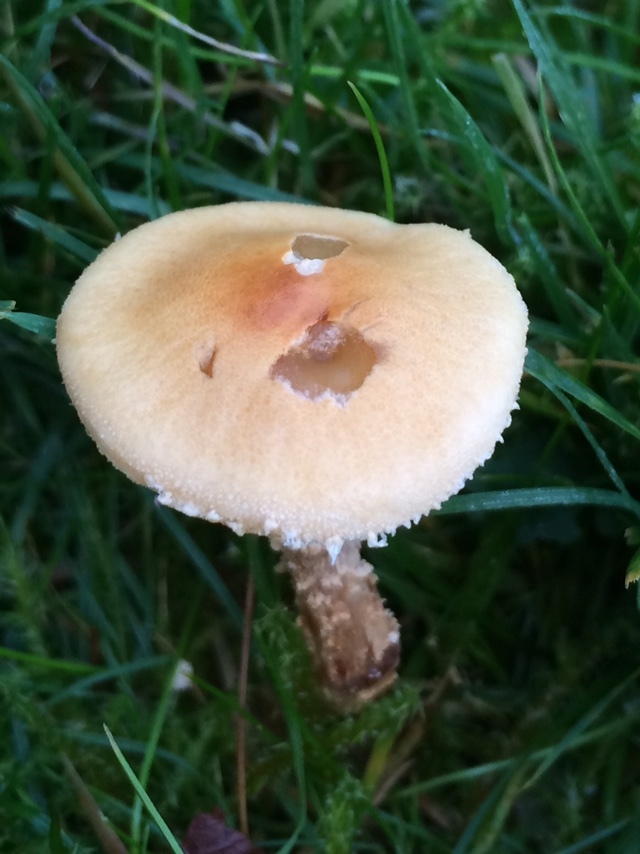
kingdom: Fungi
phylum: Basidiomycota
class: Agaricomycetes
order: Agaricales
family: Tricholomataceae
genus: Cystoderma
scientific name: Cystoderma amianthinum
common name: Earthy powdercap
